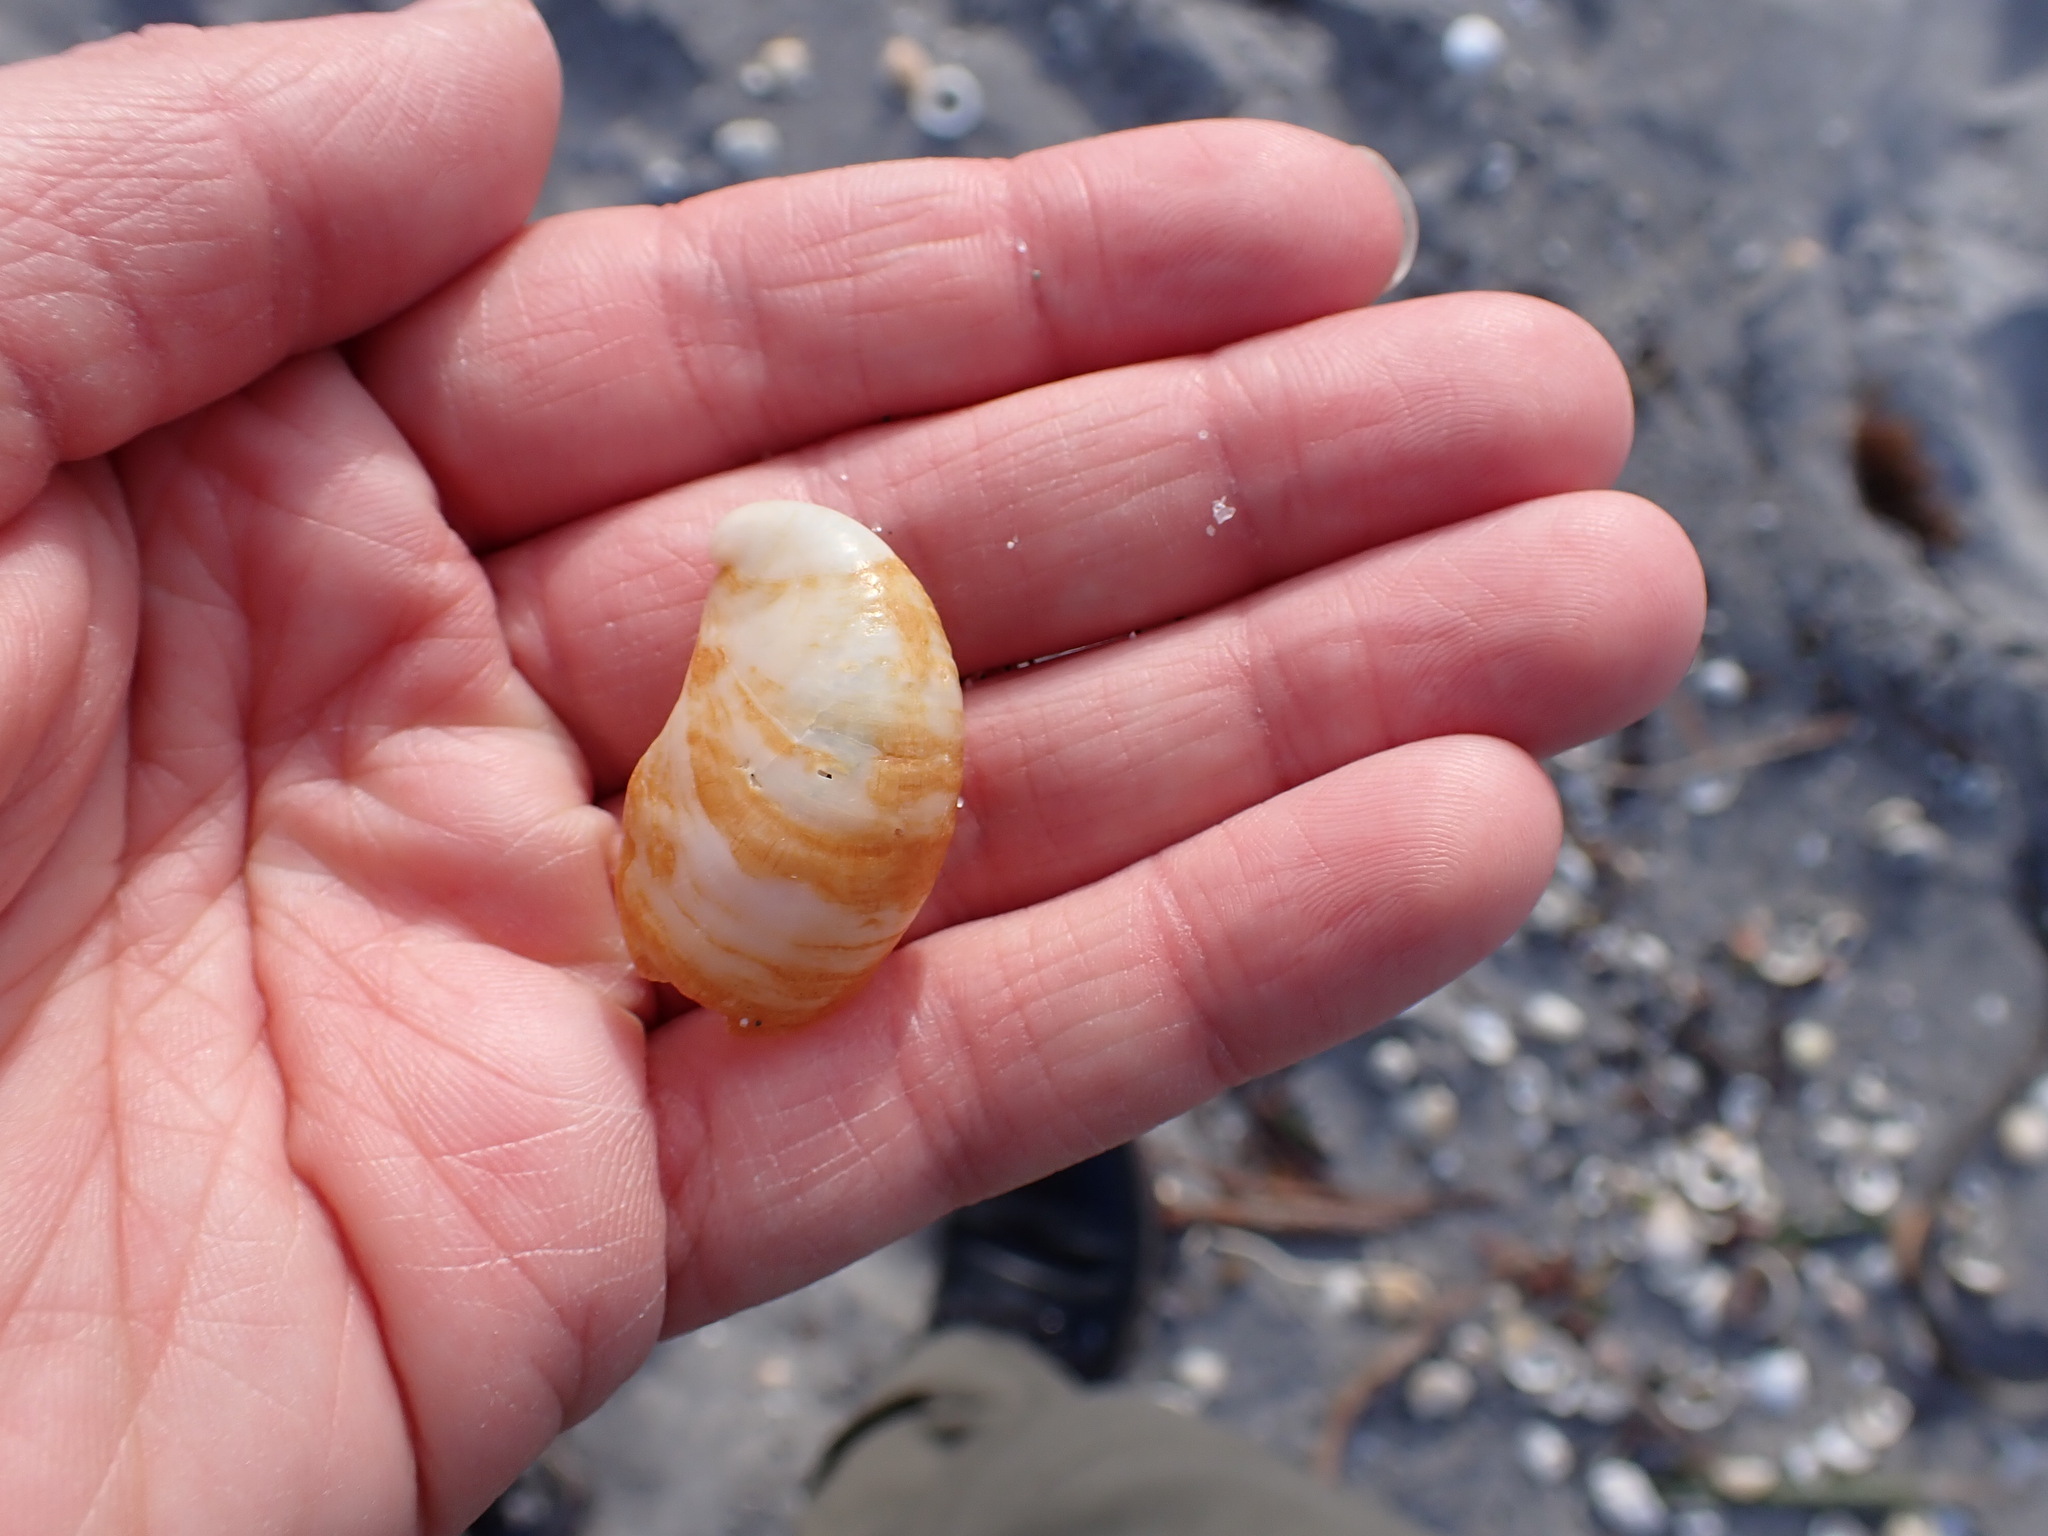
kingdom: Animalia
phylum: Mollusca
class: Gastropoda
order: Littorinimorpha
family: Calyptraeidae
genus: Crepidula
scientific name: Crepidula fornicata
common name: Slipper limpet
